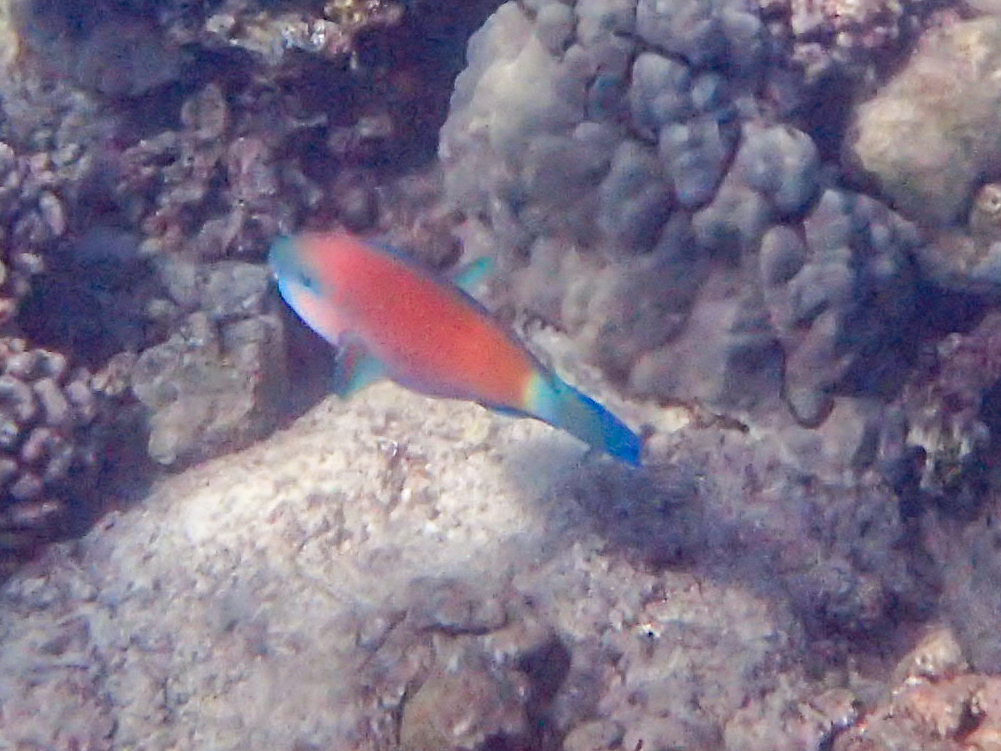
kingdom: Animalia
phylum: Chordata
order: Perciformes
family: Scaridae
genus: Chlorurus
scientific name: Chlorurus spilurus
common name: Bullethead parrotfish
